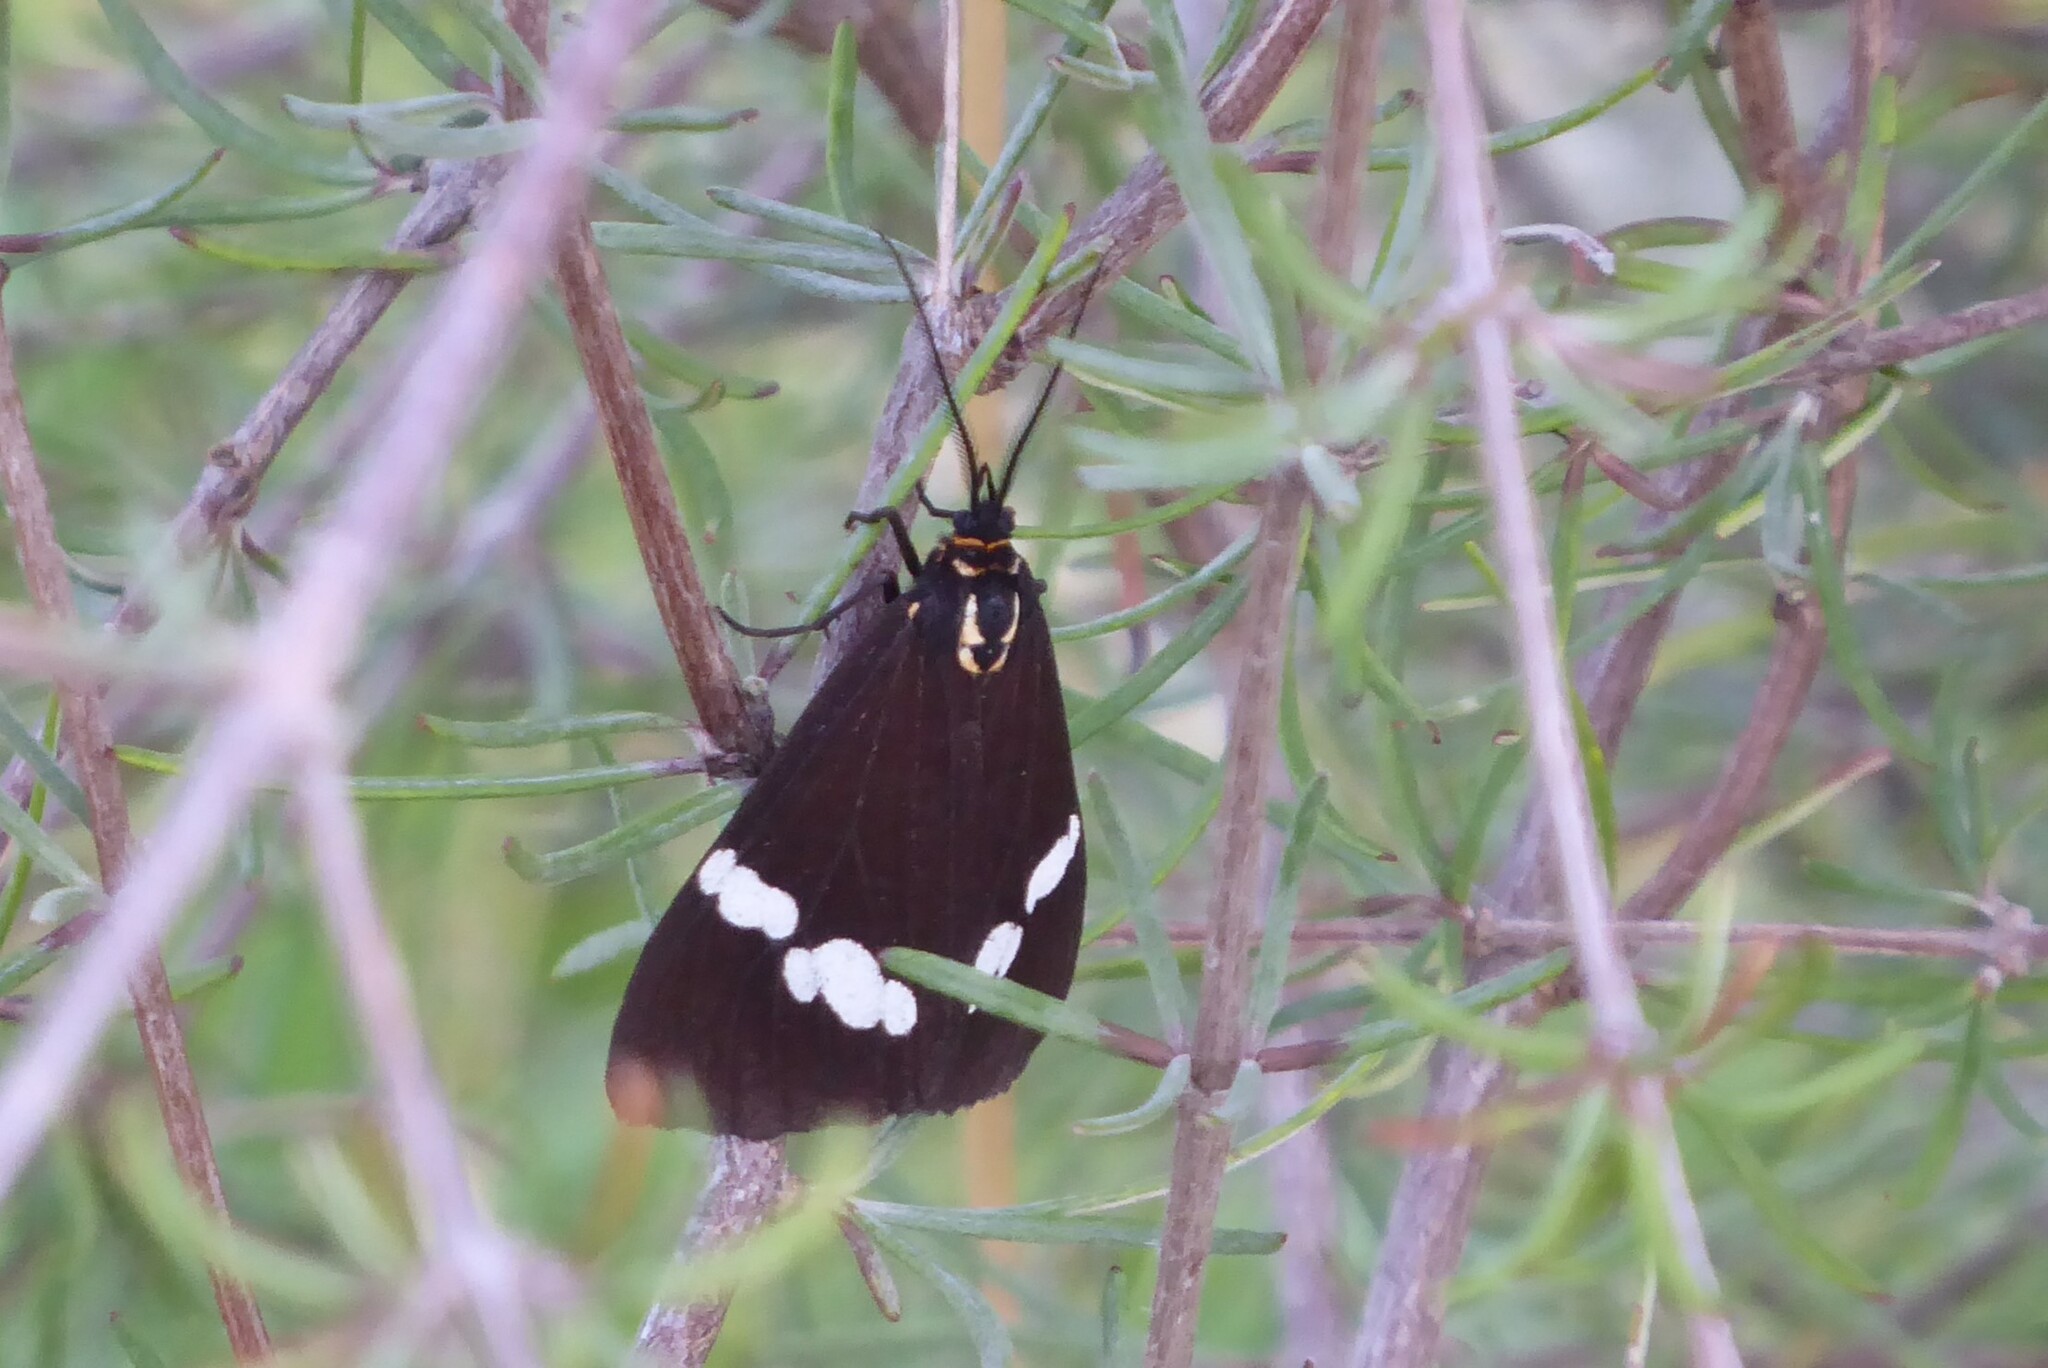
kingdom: Animalia
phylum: Arthropoda
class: Insecta
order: Lepidoptera
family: Erebidae
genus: Nyctemera
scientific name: Nyctemera annulatum
